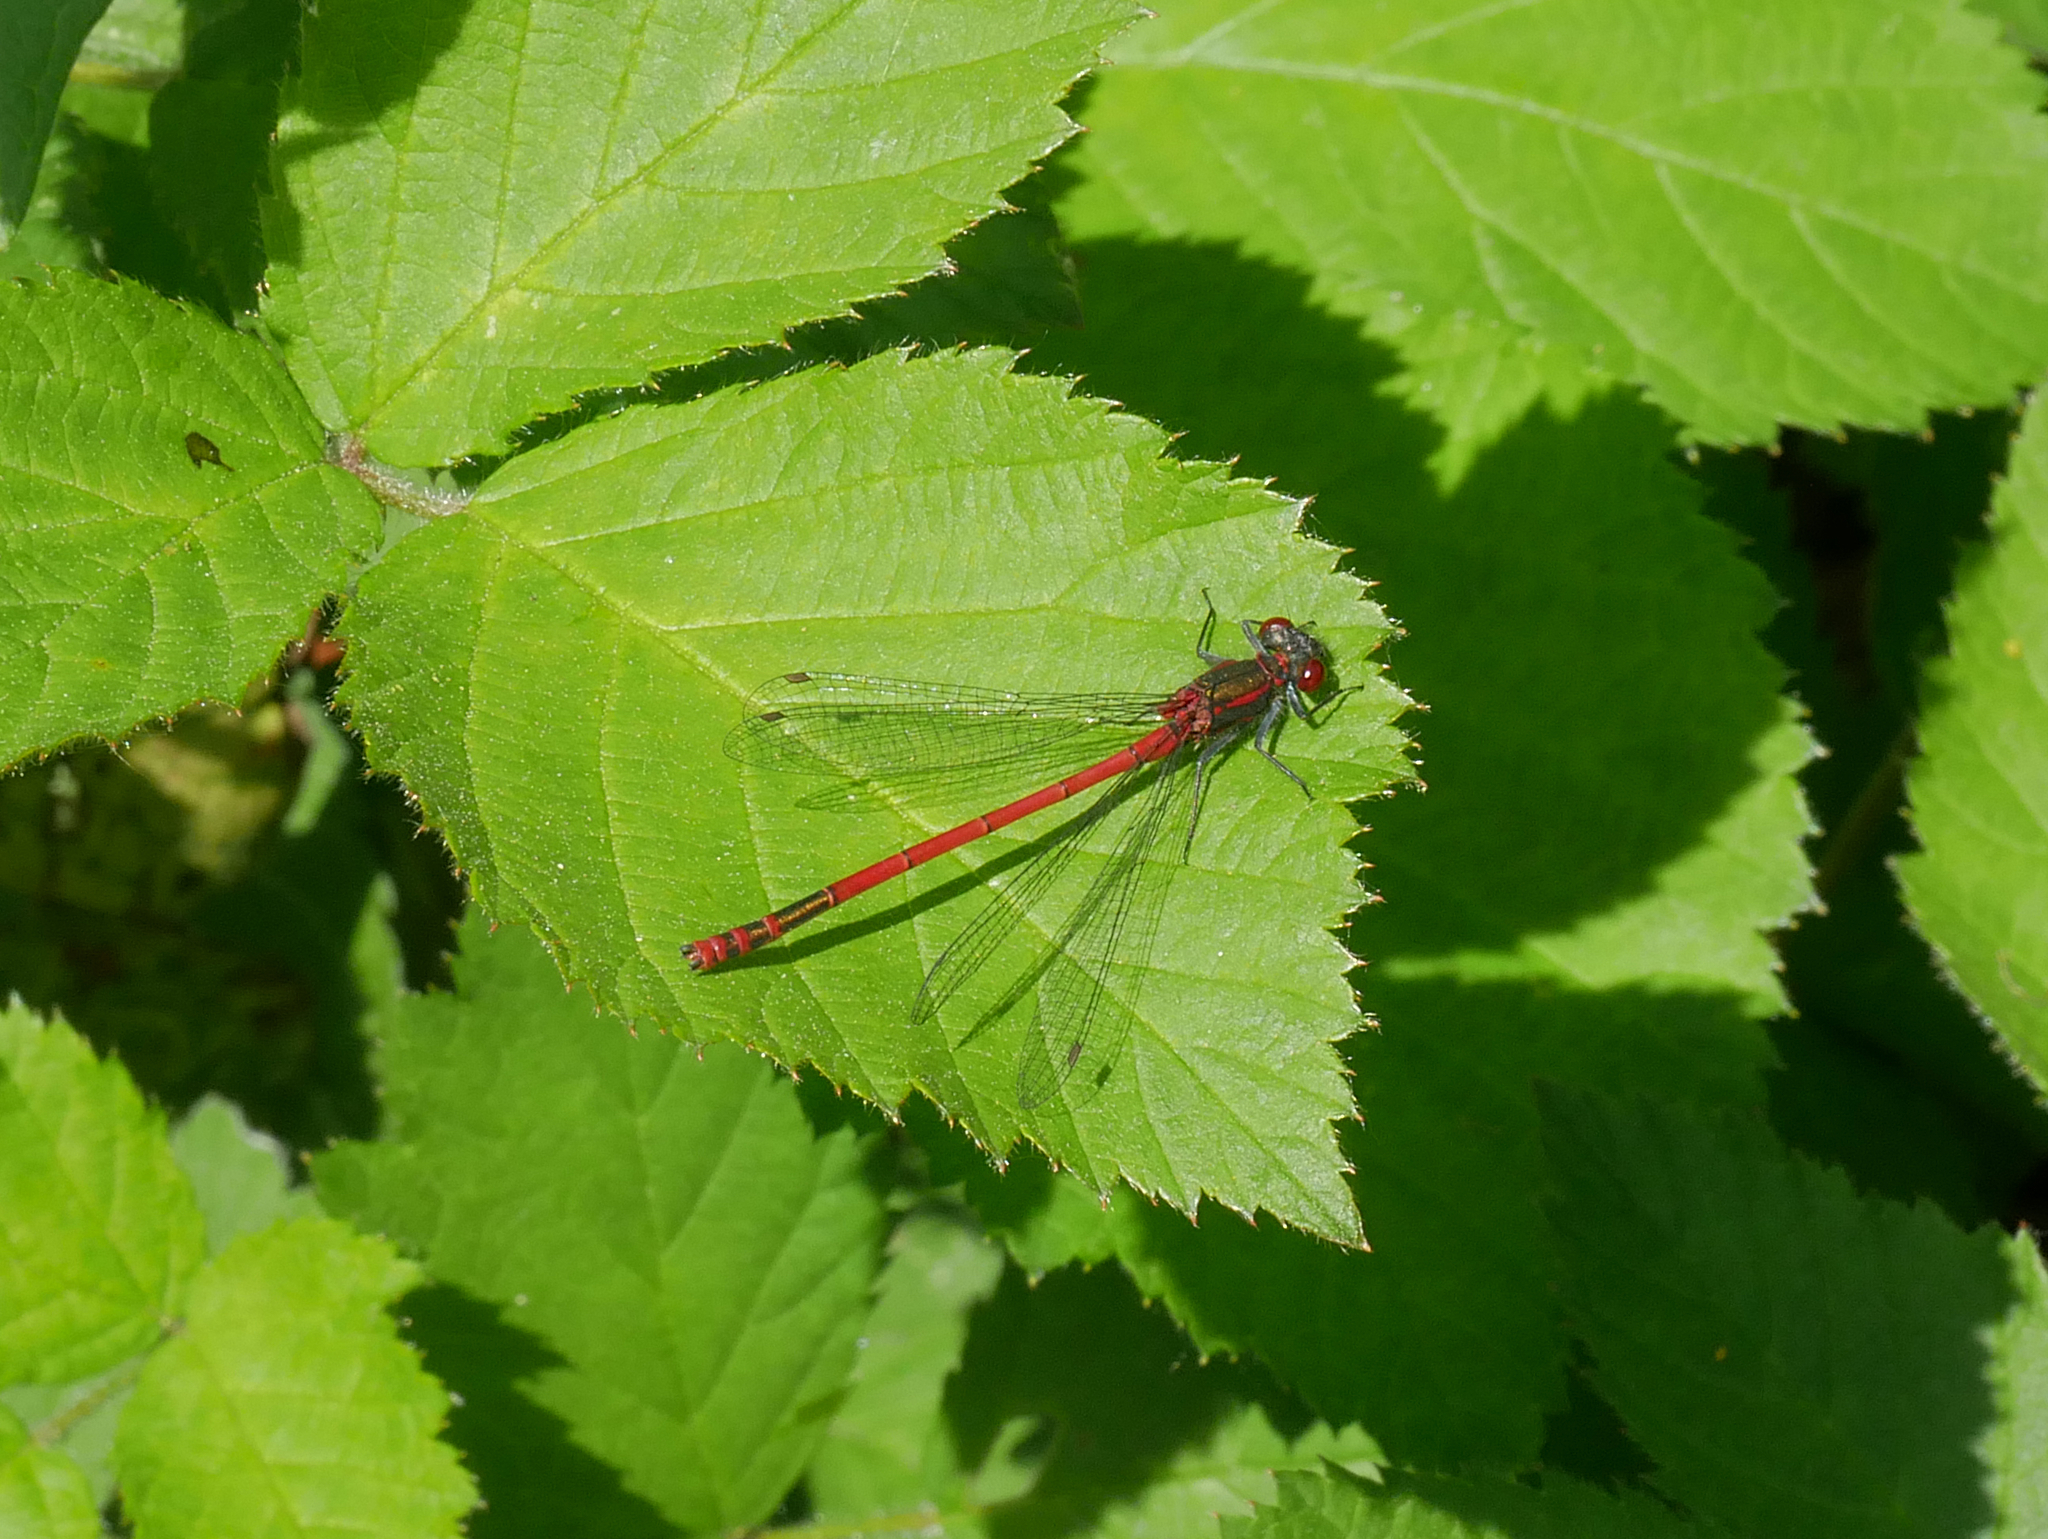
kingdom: Animalia
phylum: Arthropoda
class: Insecta
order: Odonata
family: Coenagrionidae
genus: Pyrrhosoma
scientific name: Pyrrhosoma nymphula
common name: Large red damsel
